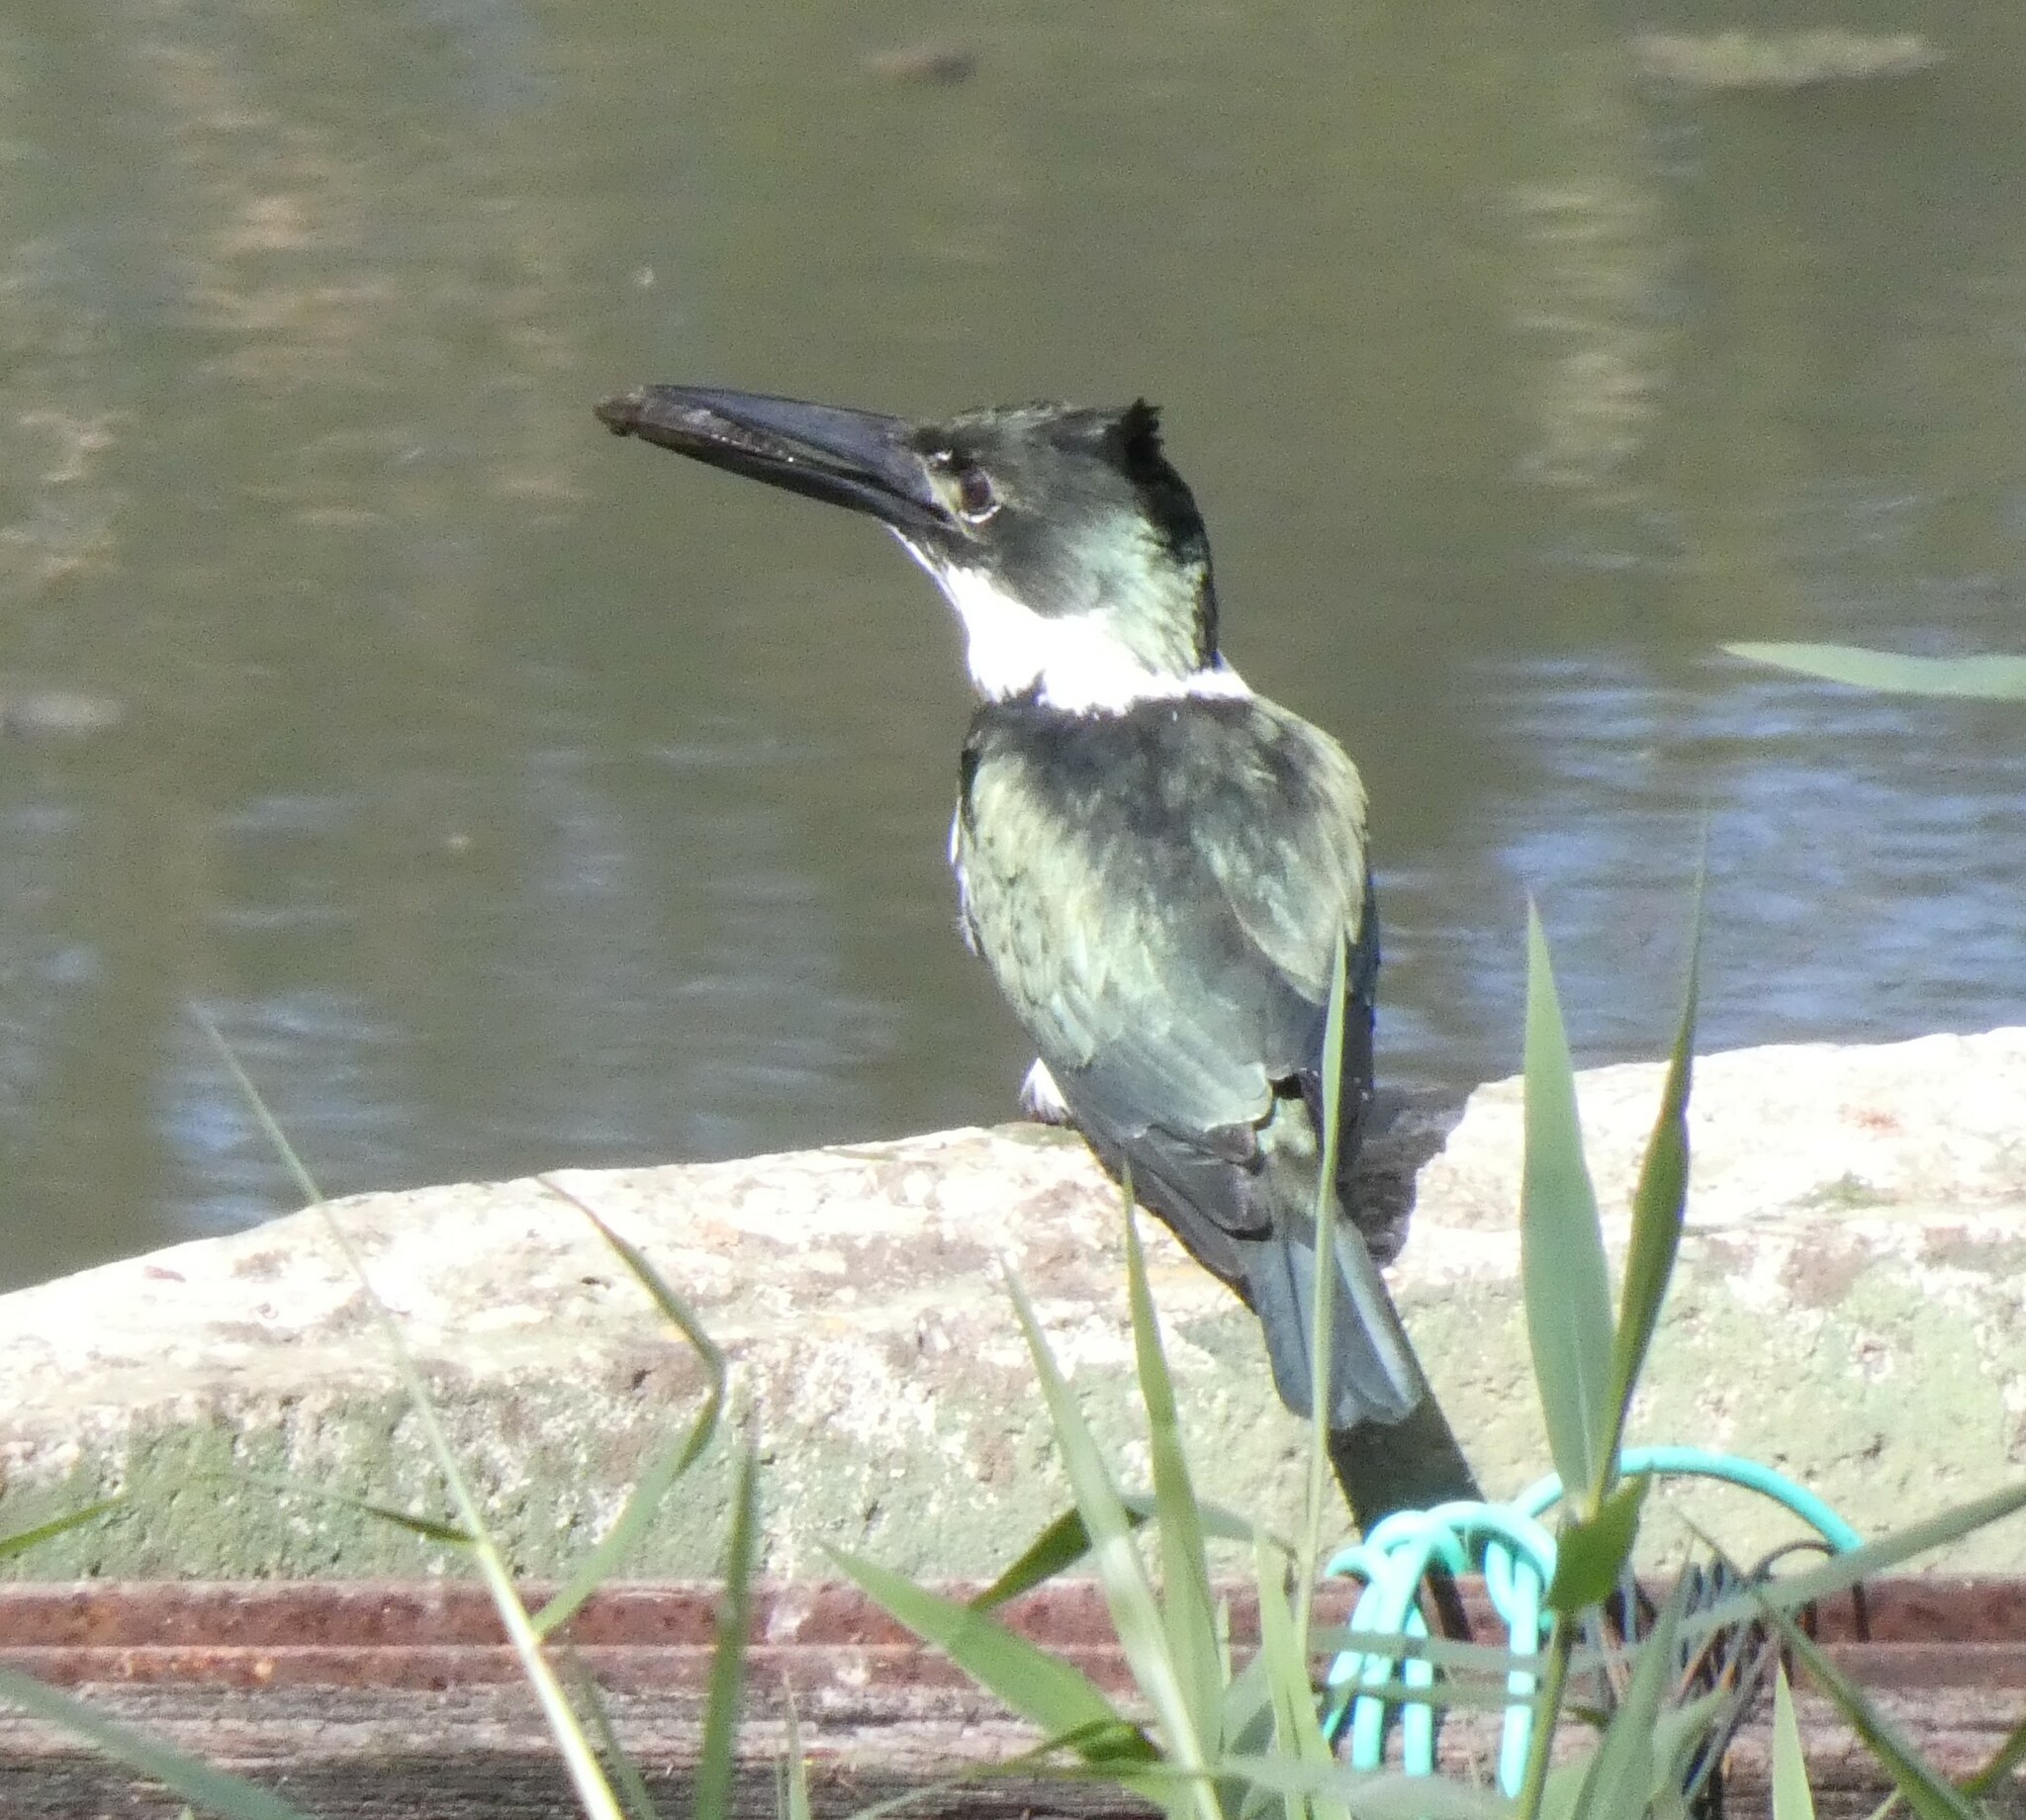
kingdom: Animalia
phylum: Chordata
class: Aves
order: Coraciiformes
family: Alcedinidae
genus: Chloroceryle
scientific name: Chloroceryle amazona
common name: Amazon kingfisher
